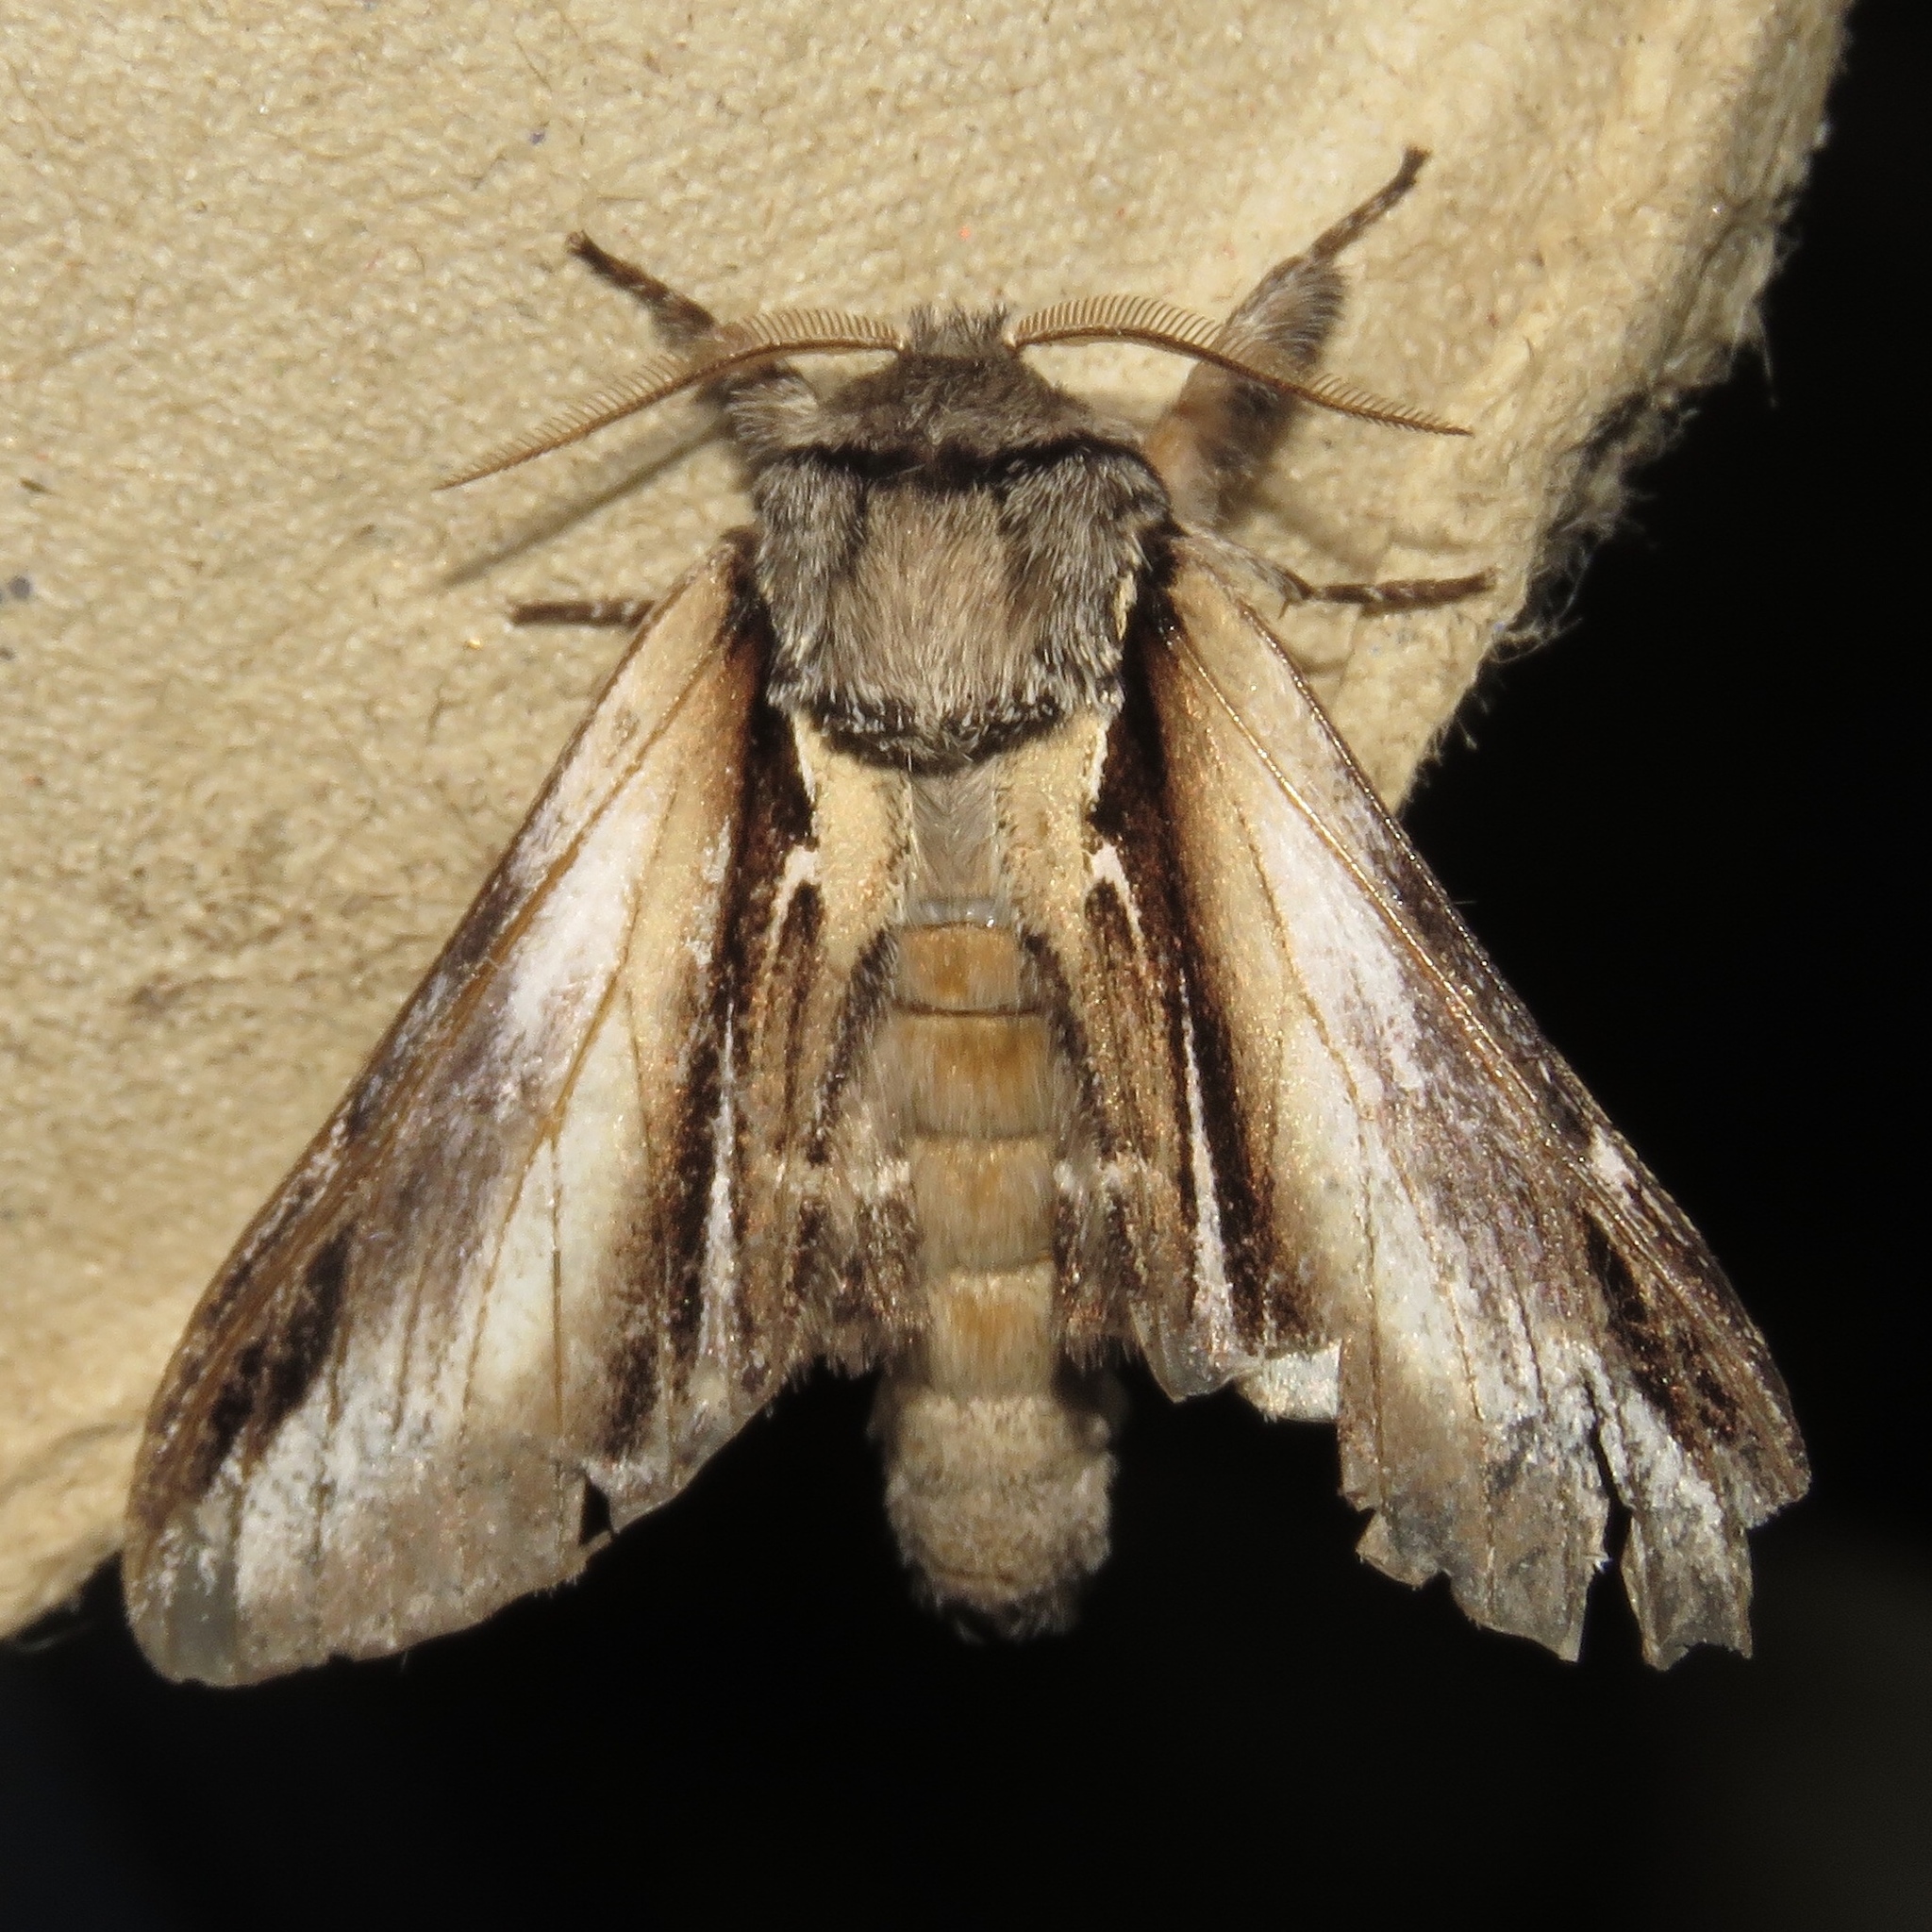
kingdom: Animalia
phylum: Arthropoda
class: Insecta
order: Lepidoptera
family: Notodontidae
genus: Pheosia
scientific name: Pheosia rimosa
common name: Black-rimmed prominent
